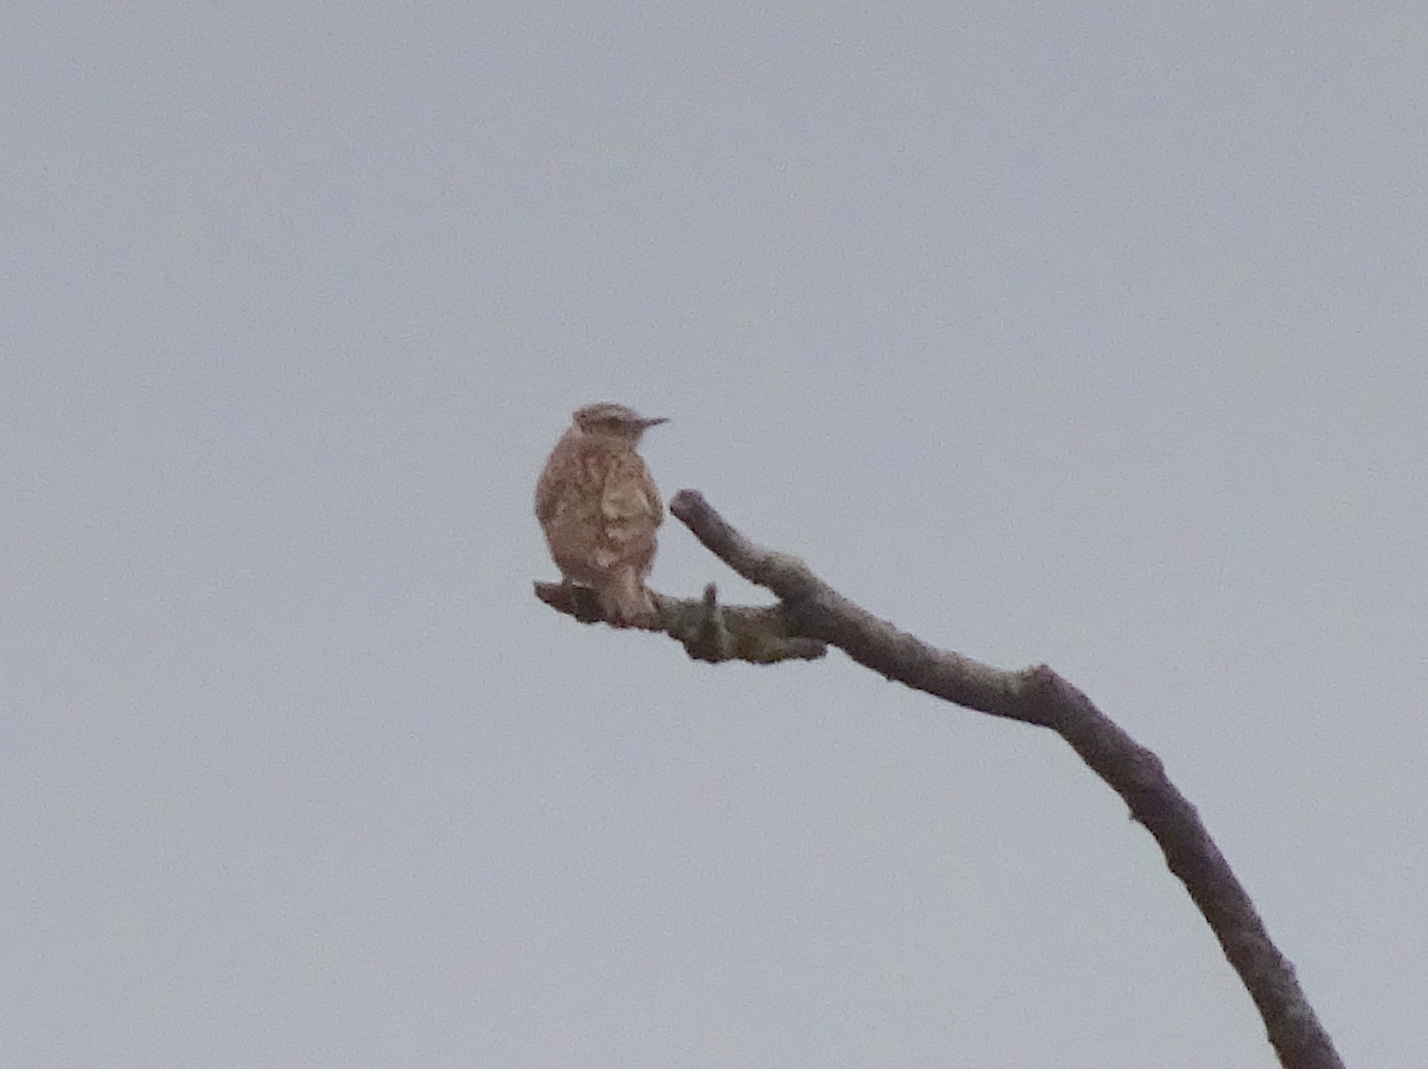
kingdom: Animalia
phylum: Chordata
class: Aves
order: Passeriformes
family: Alaudidae
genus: Lullula
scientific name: Lullula arborea
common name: Woodlark
